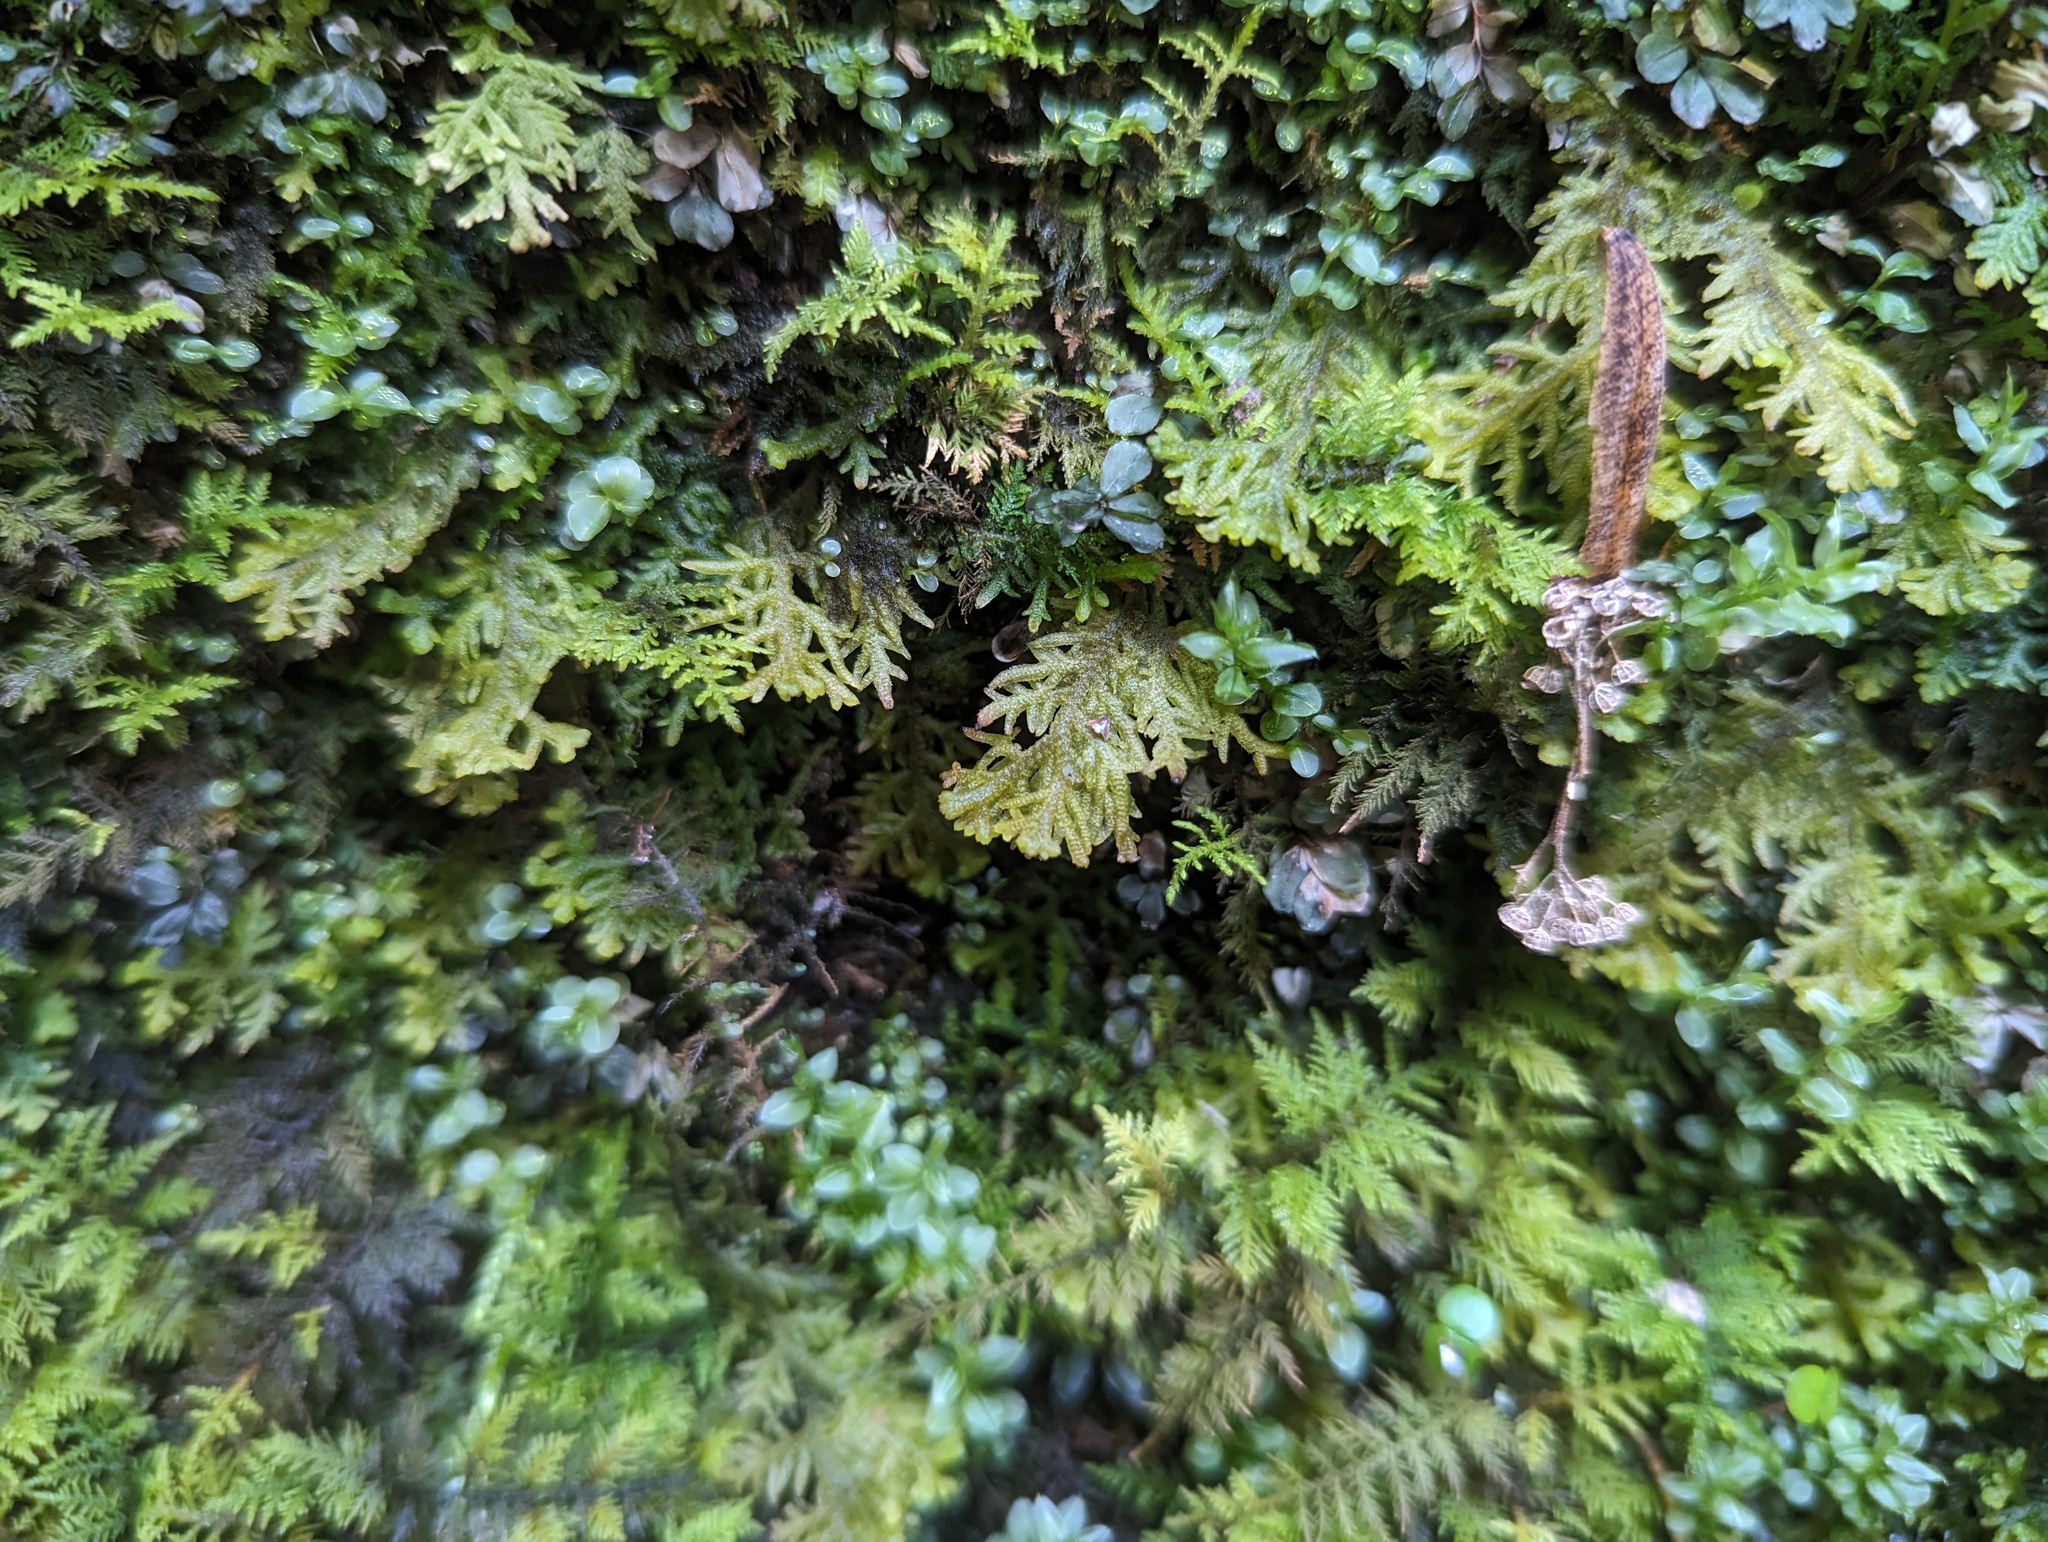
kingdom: Plantae
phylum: Marchantiophyta
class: Jungermanniopsida
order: Jungermanniales
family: Trichocoleaceae
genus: Trichocolea
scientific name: Trichocolea tomentella
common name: Woolly liverwort
